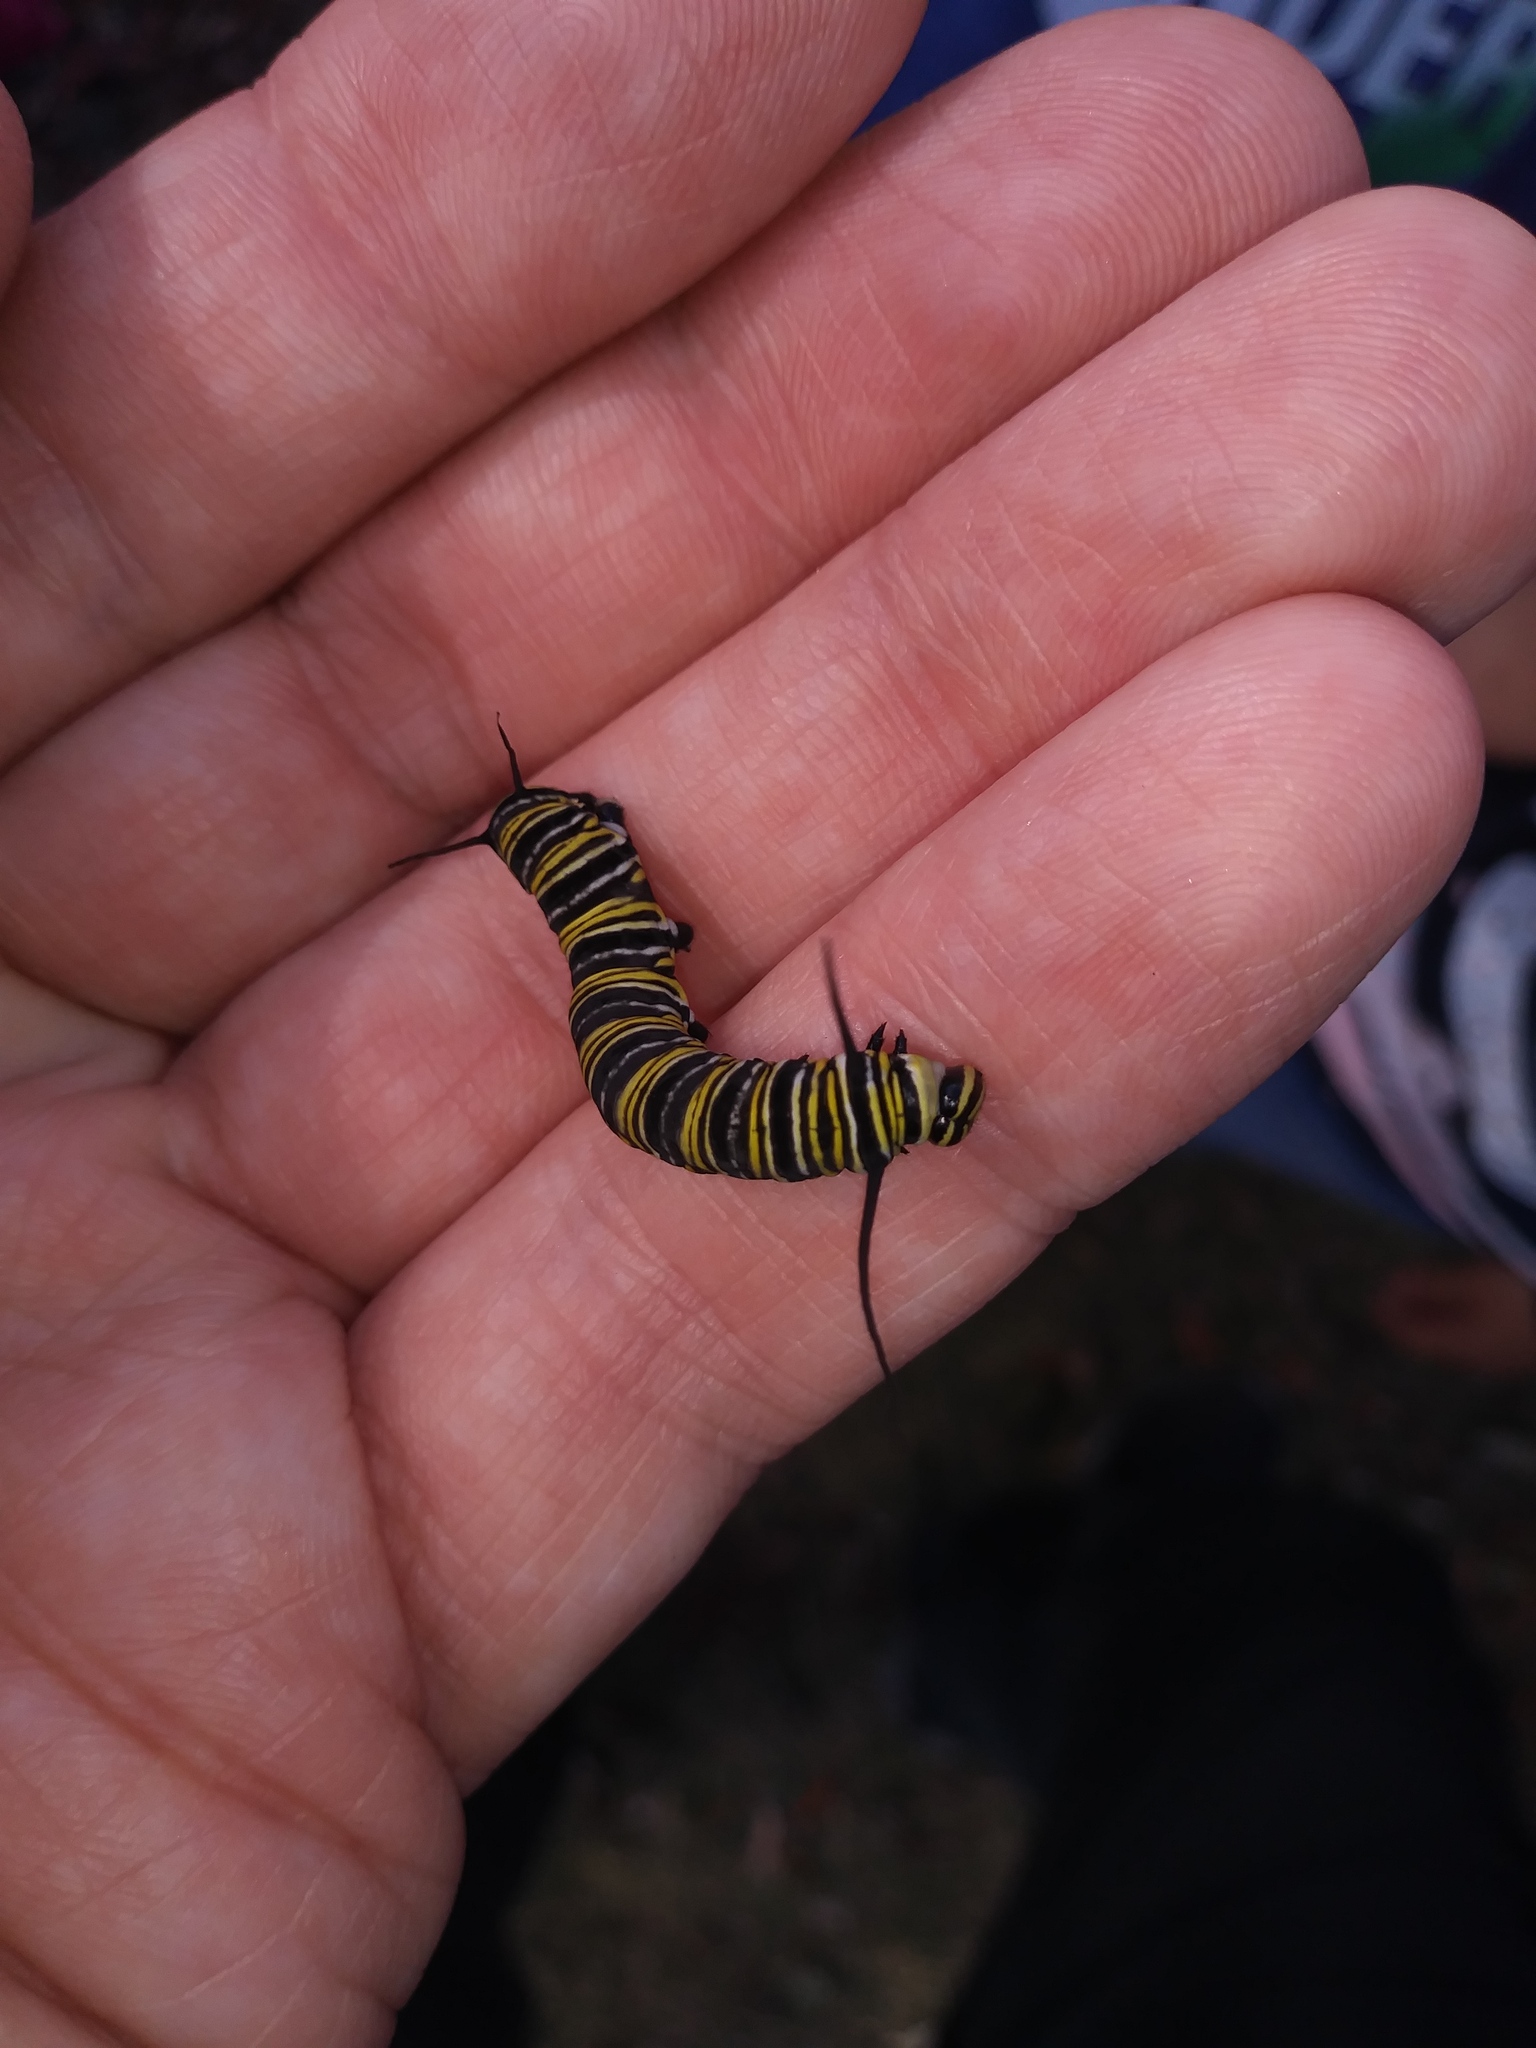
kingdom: Animalia
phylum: Arthropoda
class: Insecta
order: Lepidoptera
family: Nymphalidae
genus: Danaus
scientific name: Danaus plexippus
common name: Monarch
